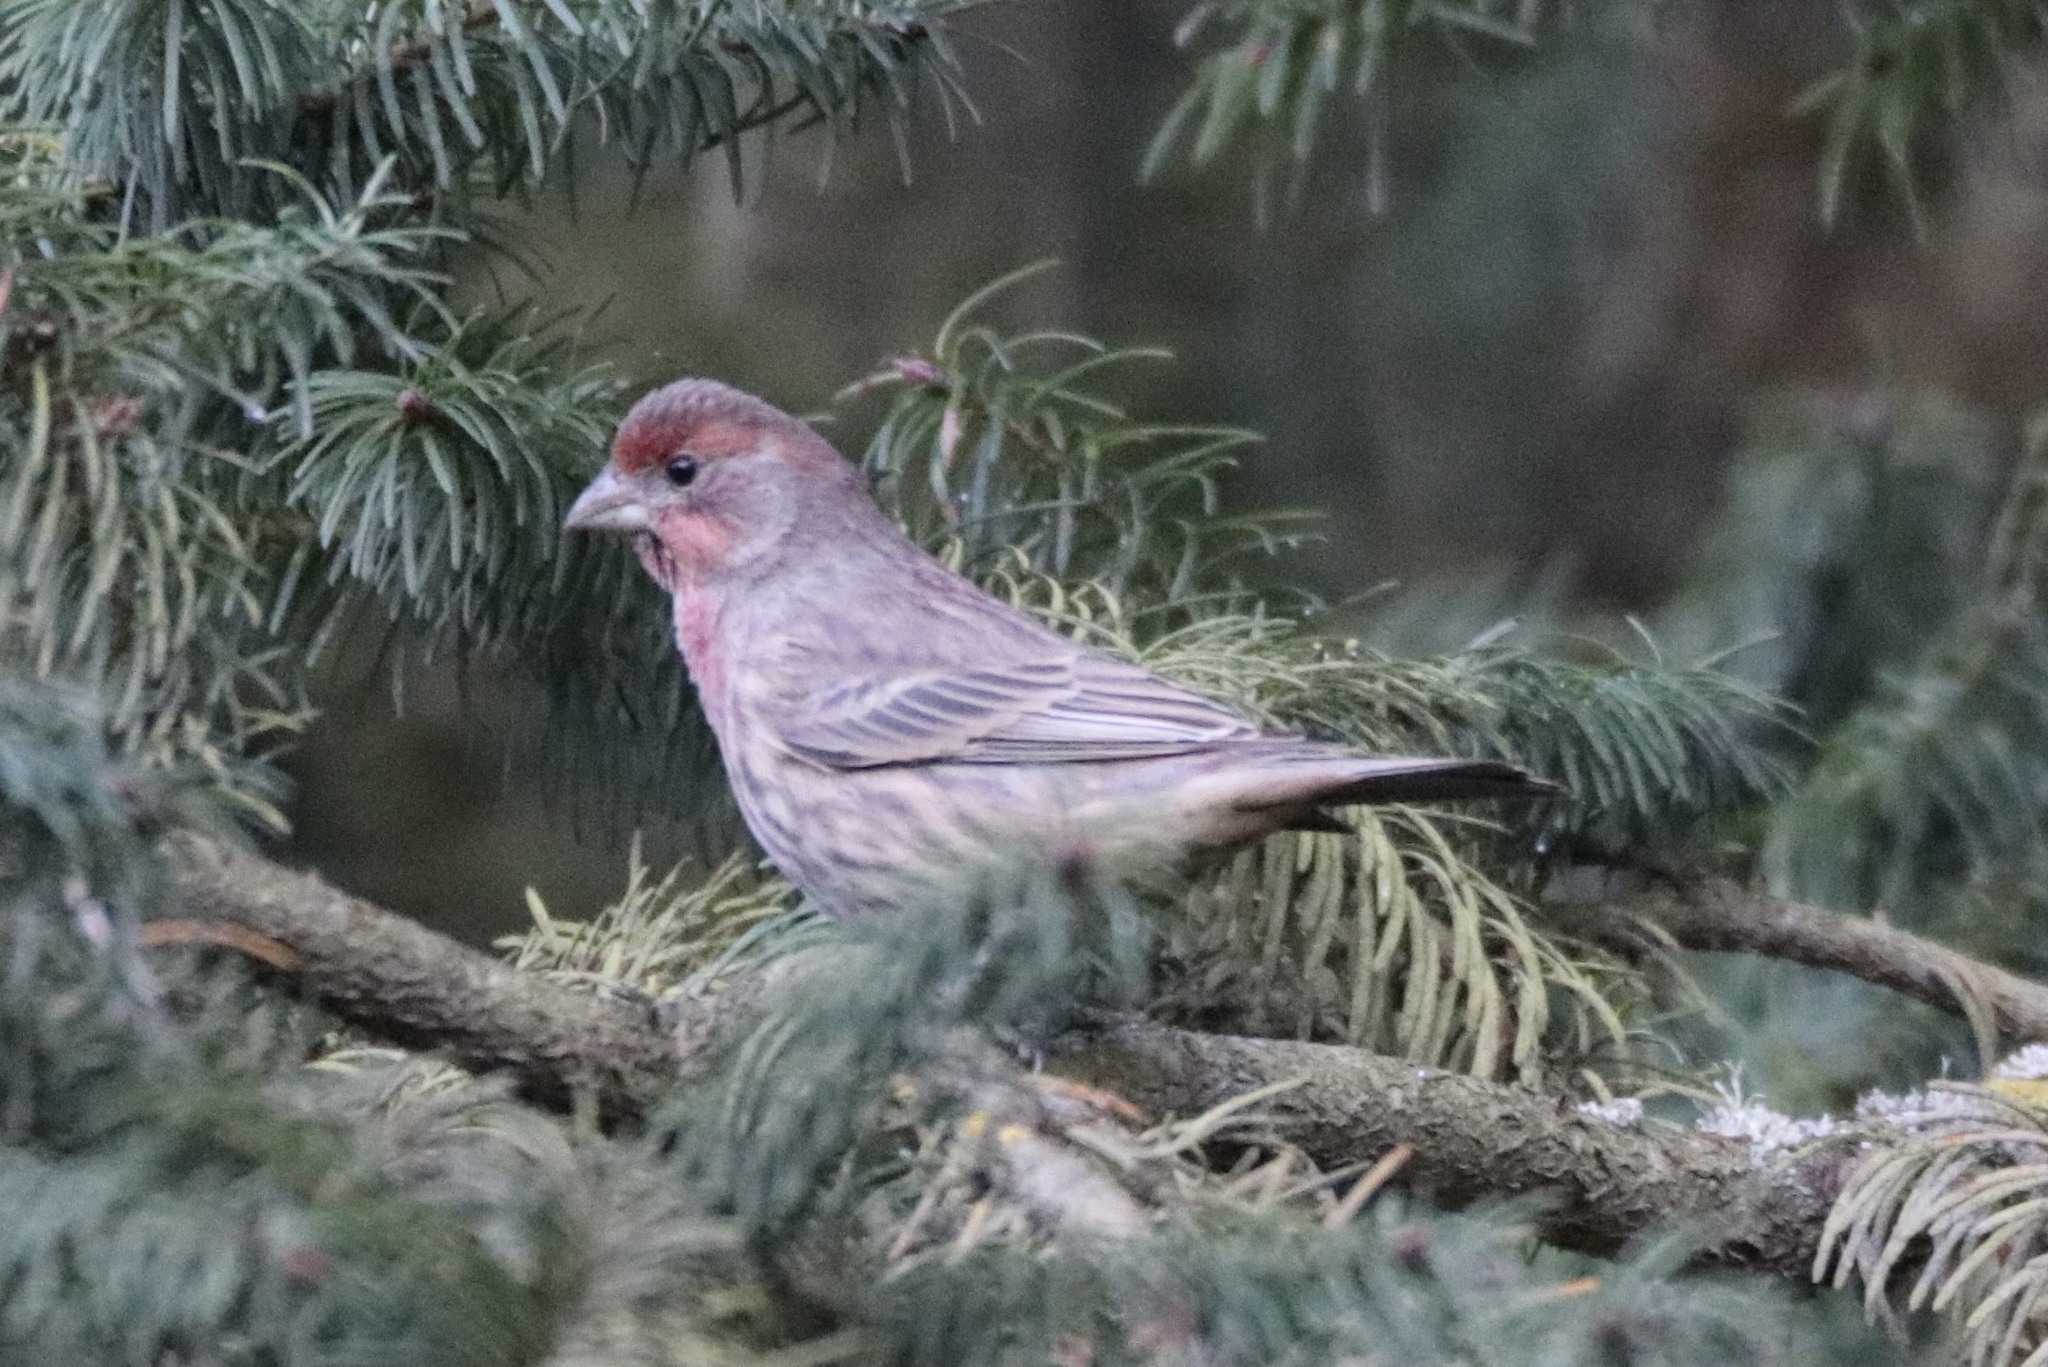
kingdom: Animalia
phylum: Chordata
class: Aves
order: Passeriformes
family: Fringillidae
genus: Haemorhous
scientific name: Haemorhous mexicanus
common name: House finch
